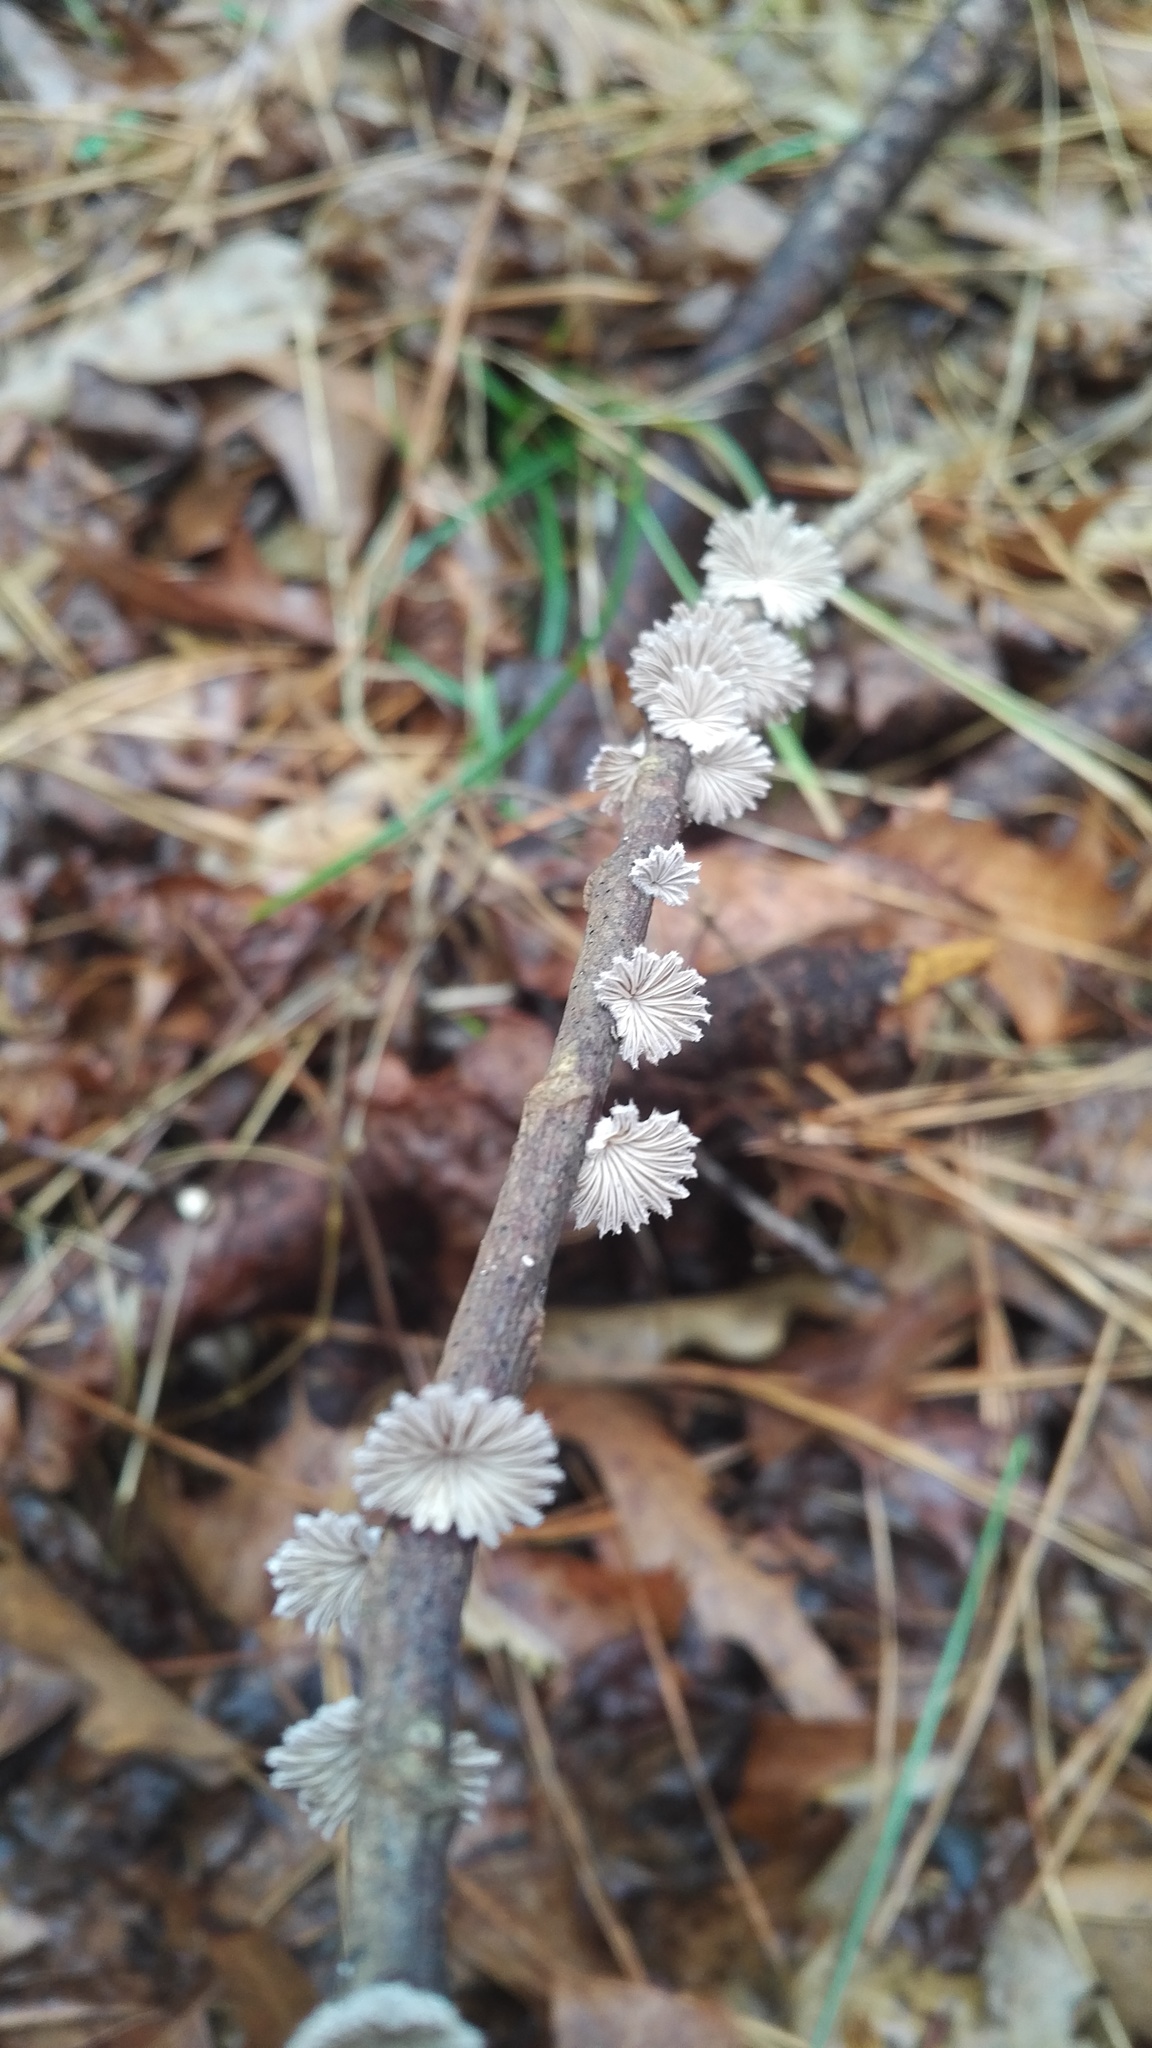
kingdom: Fungi
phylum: Basidiomycota
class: Agaricomycetes
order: Agaricales
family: Schizophyllaceae
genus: Schizophyllum
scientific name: Schizophyllum commune
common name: Common porecrust
